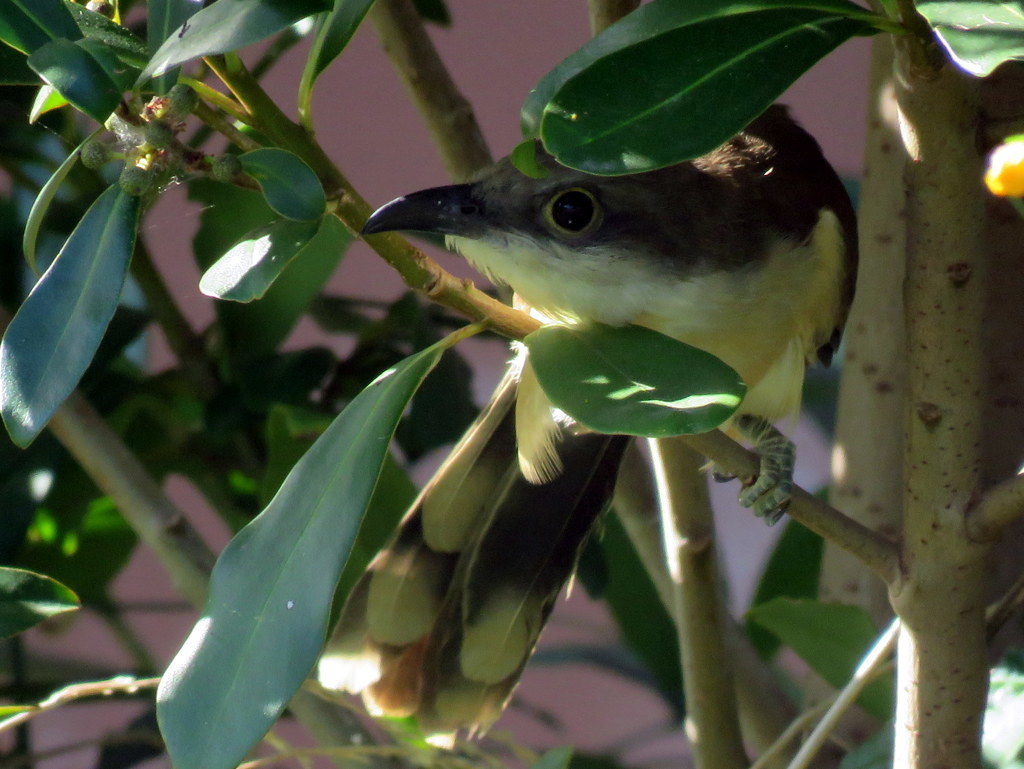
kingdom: Animalia
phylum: Chordata
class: Aves
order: Cuculiformes
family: Cuculidae
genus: Coccyzus
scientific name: Coccyzus melacoryphus
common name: Dark-billed cuckoo
